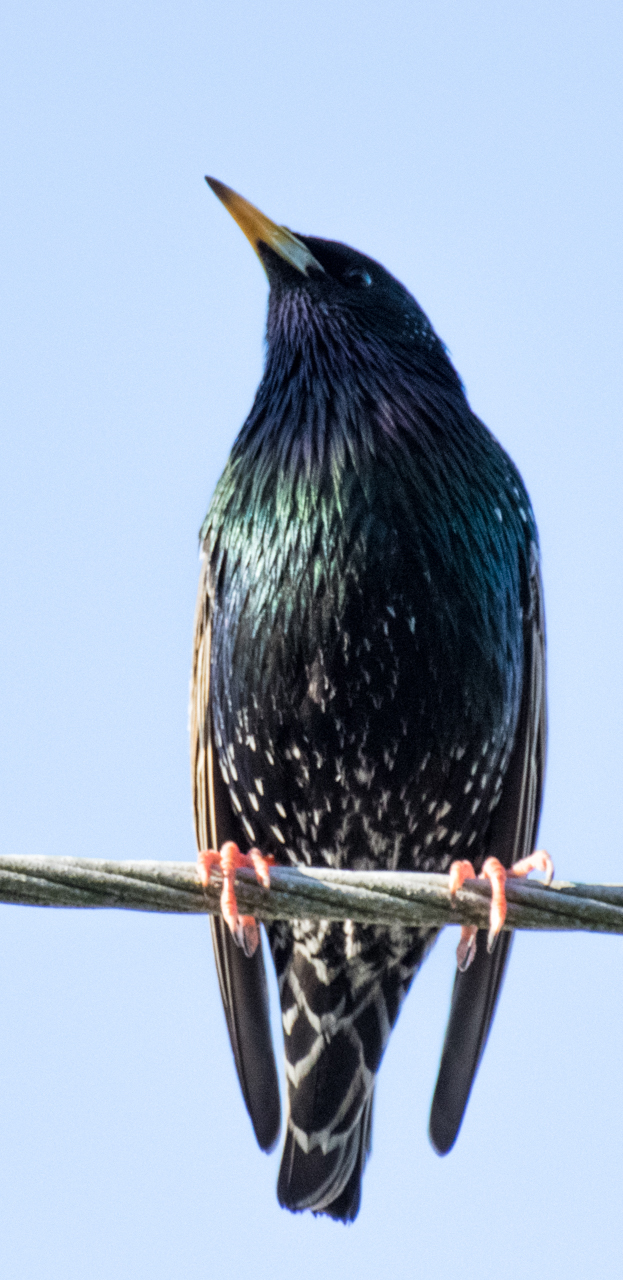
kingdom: Animalia
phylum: Chordata
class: Aves
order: Passeriformes
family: Sturnidae
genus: Sturnus
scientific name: Sturnus vulgaris
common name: Common starling
